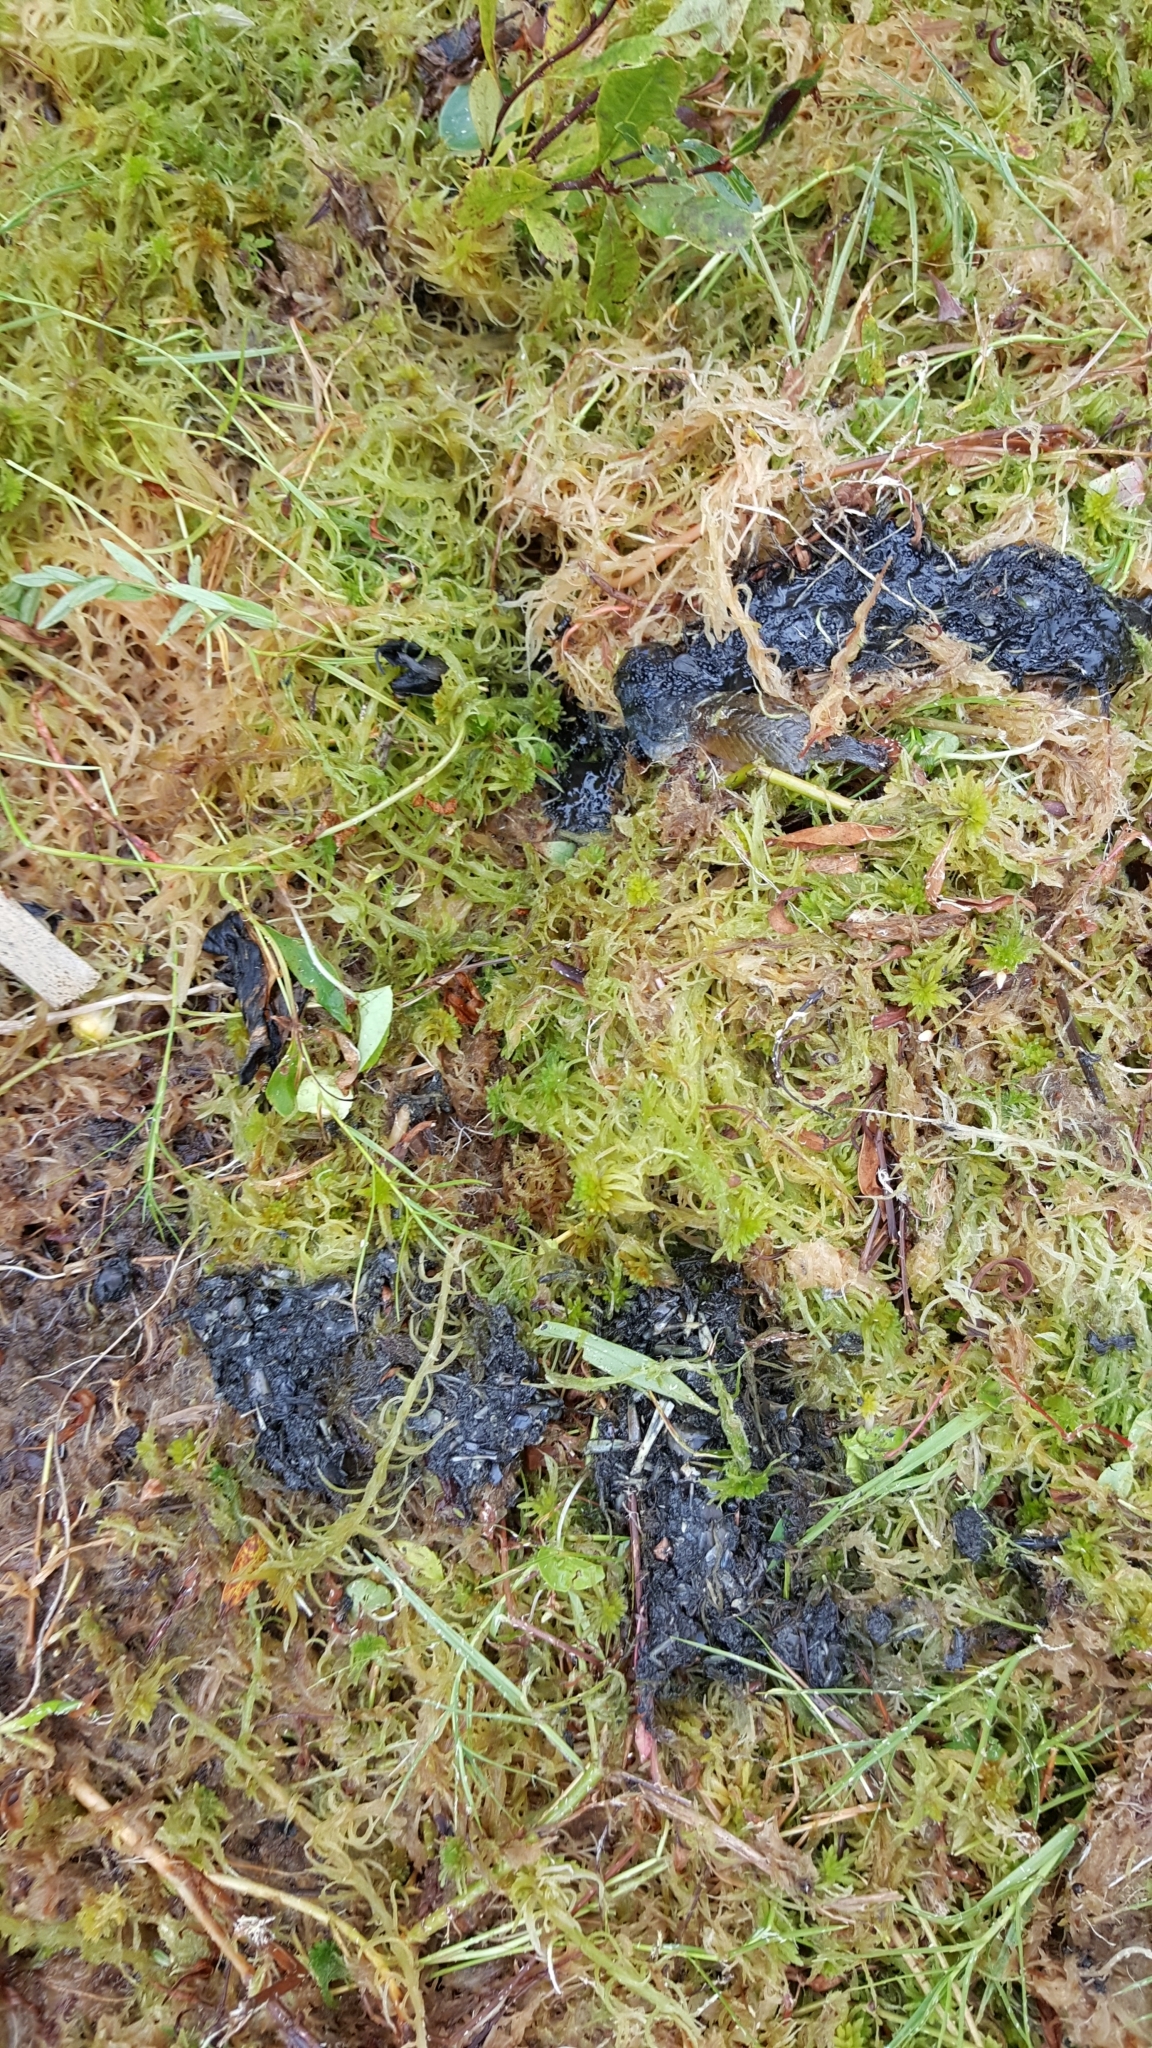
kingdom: Animalia
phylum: Chordata
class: Mammalia
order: Carnivora
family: Mustelidae
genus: Lontra
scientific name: Lontra canadensis
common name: North american river otter
